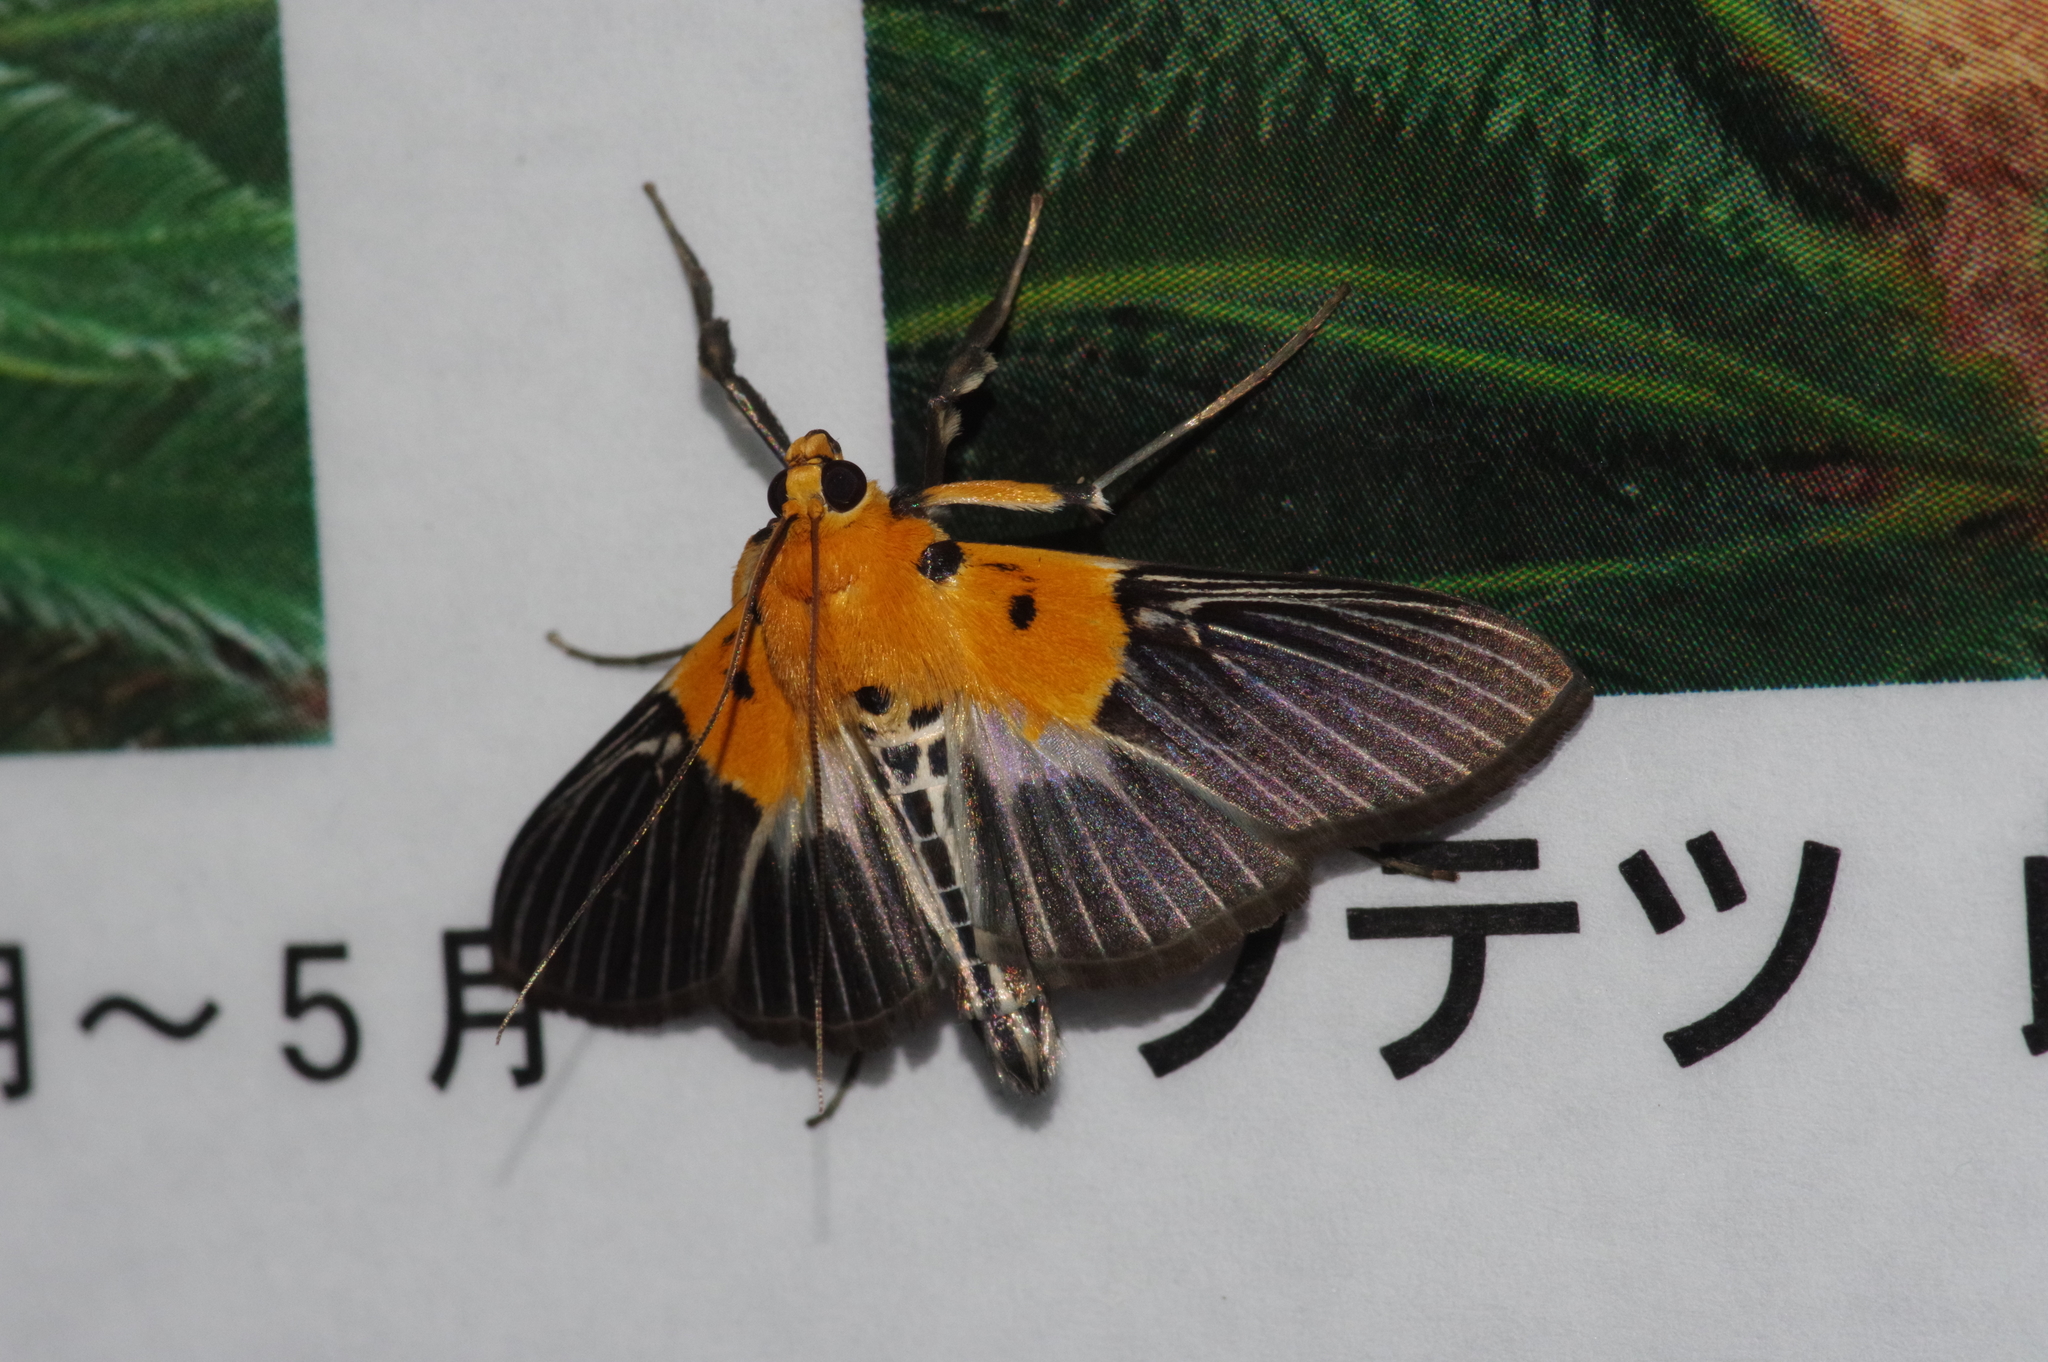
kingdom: Animalia
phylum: Arthropoda
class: Insecta
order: Lepidoptera
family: Crambidae
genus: Nevrina
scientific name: Nevrina procopia
